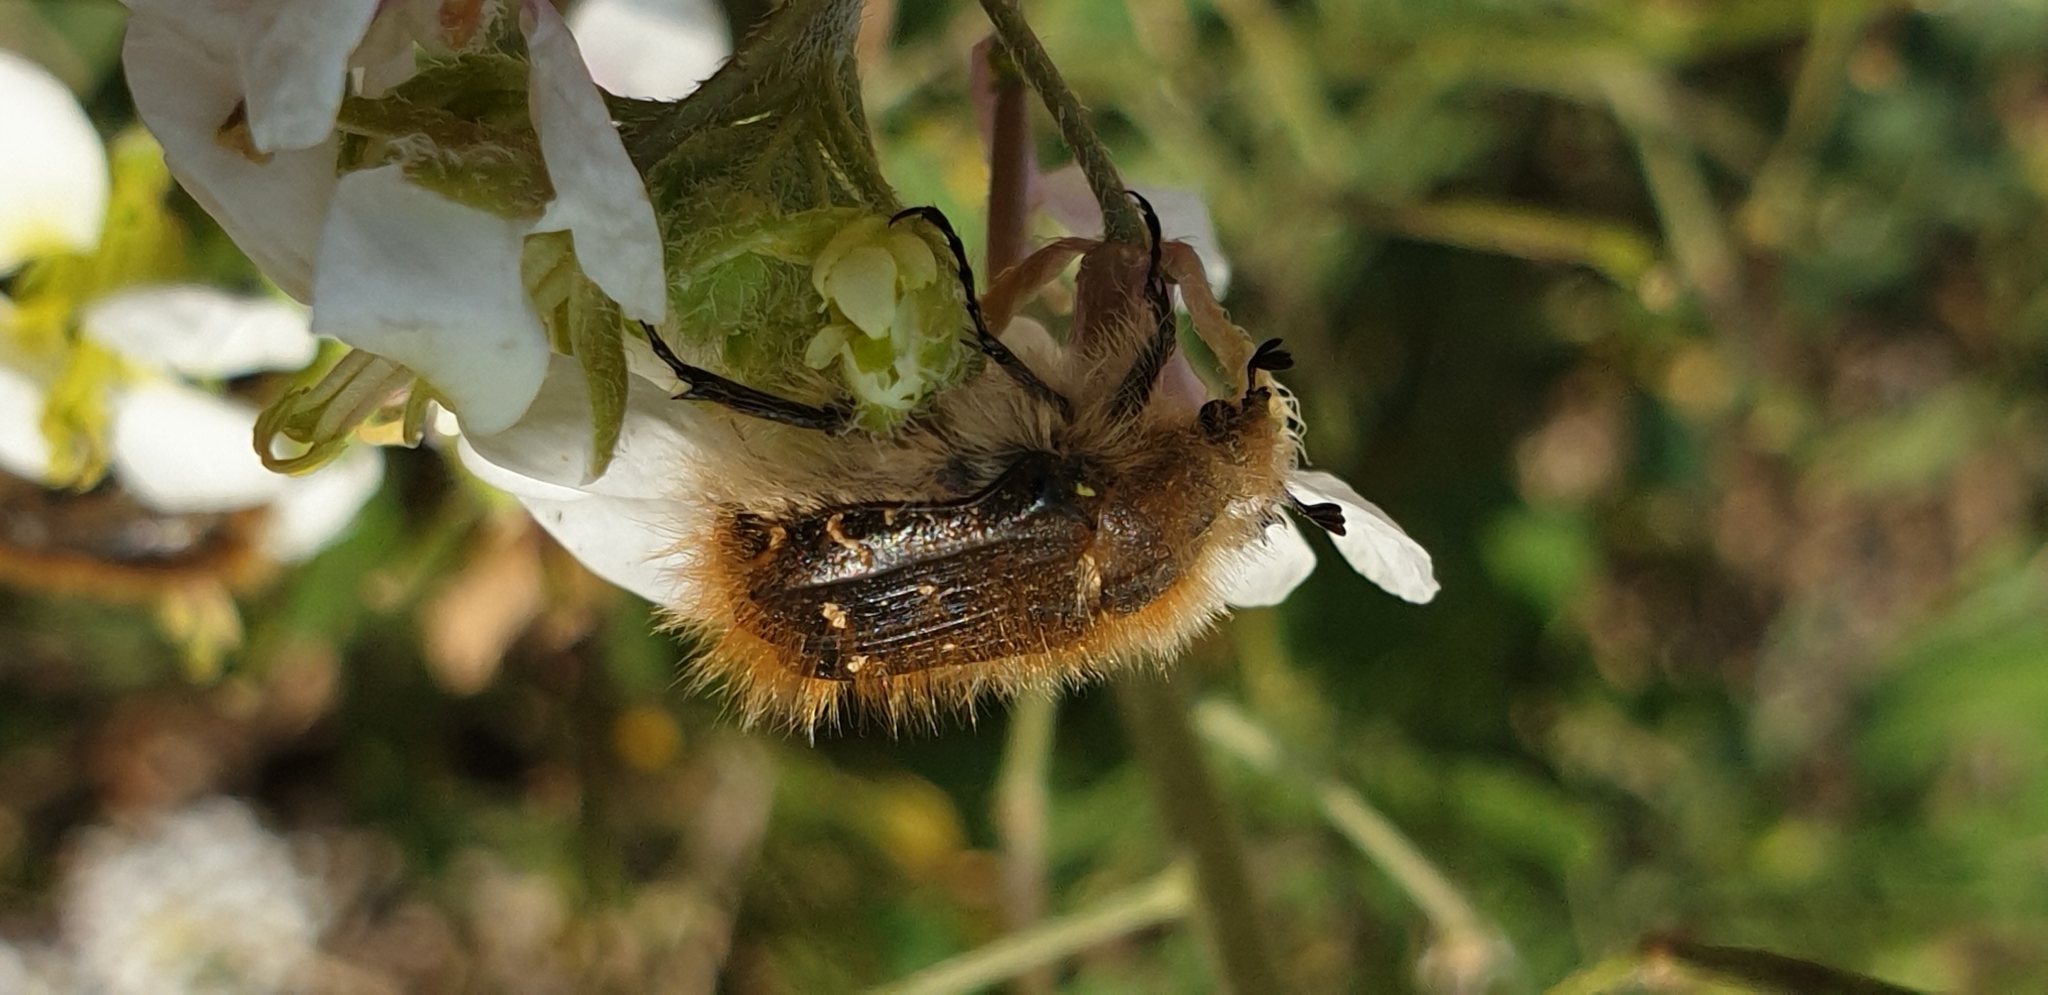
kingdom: Animalia
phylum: Arthropoda
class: Insecta
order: Coleoptera
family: Scarabaeidae
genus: Tropinota
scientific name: Tropinota squalida
